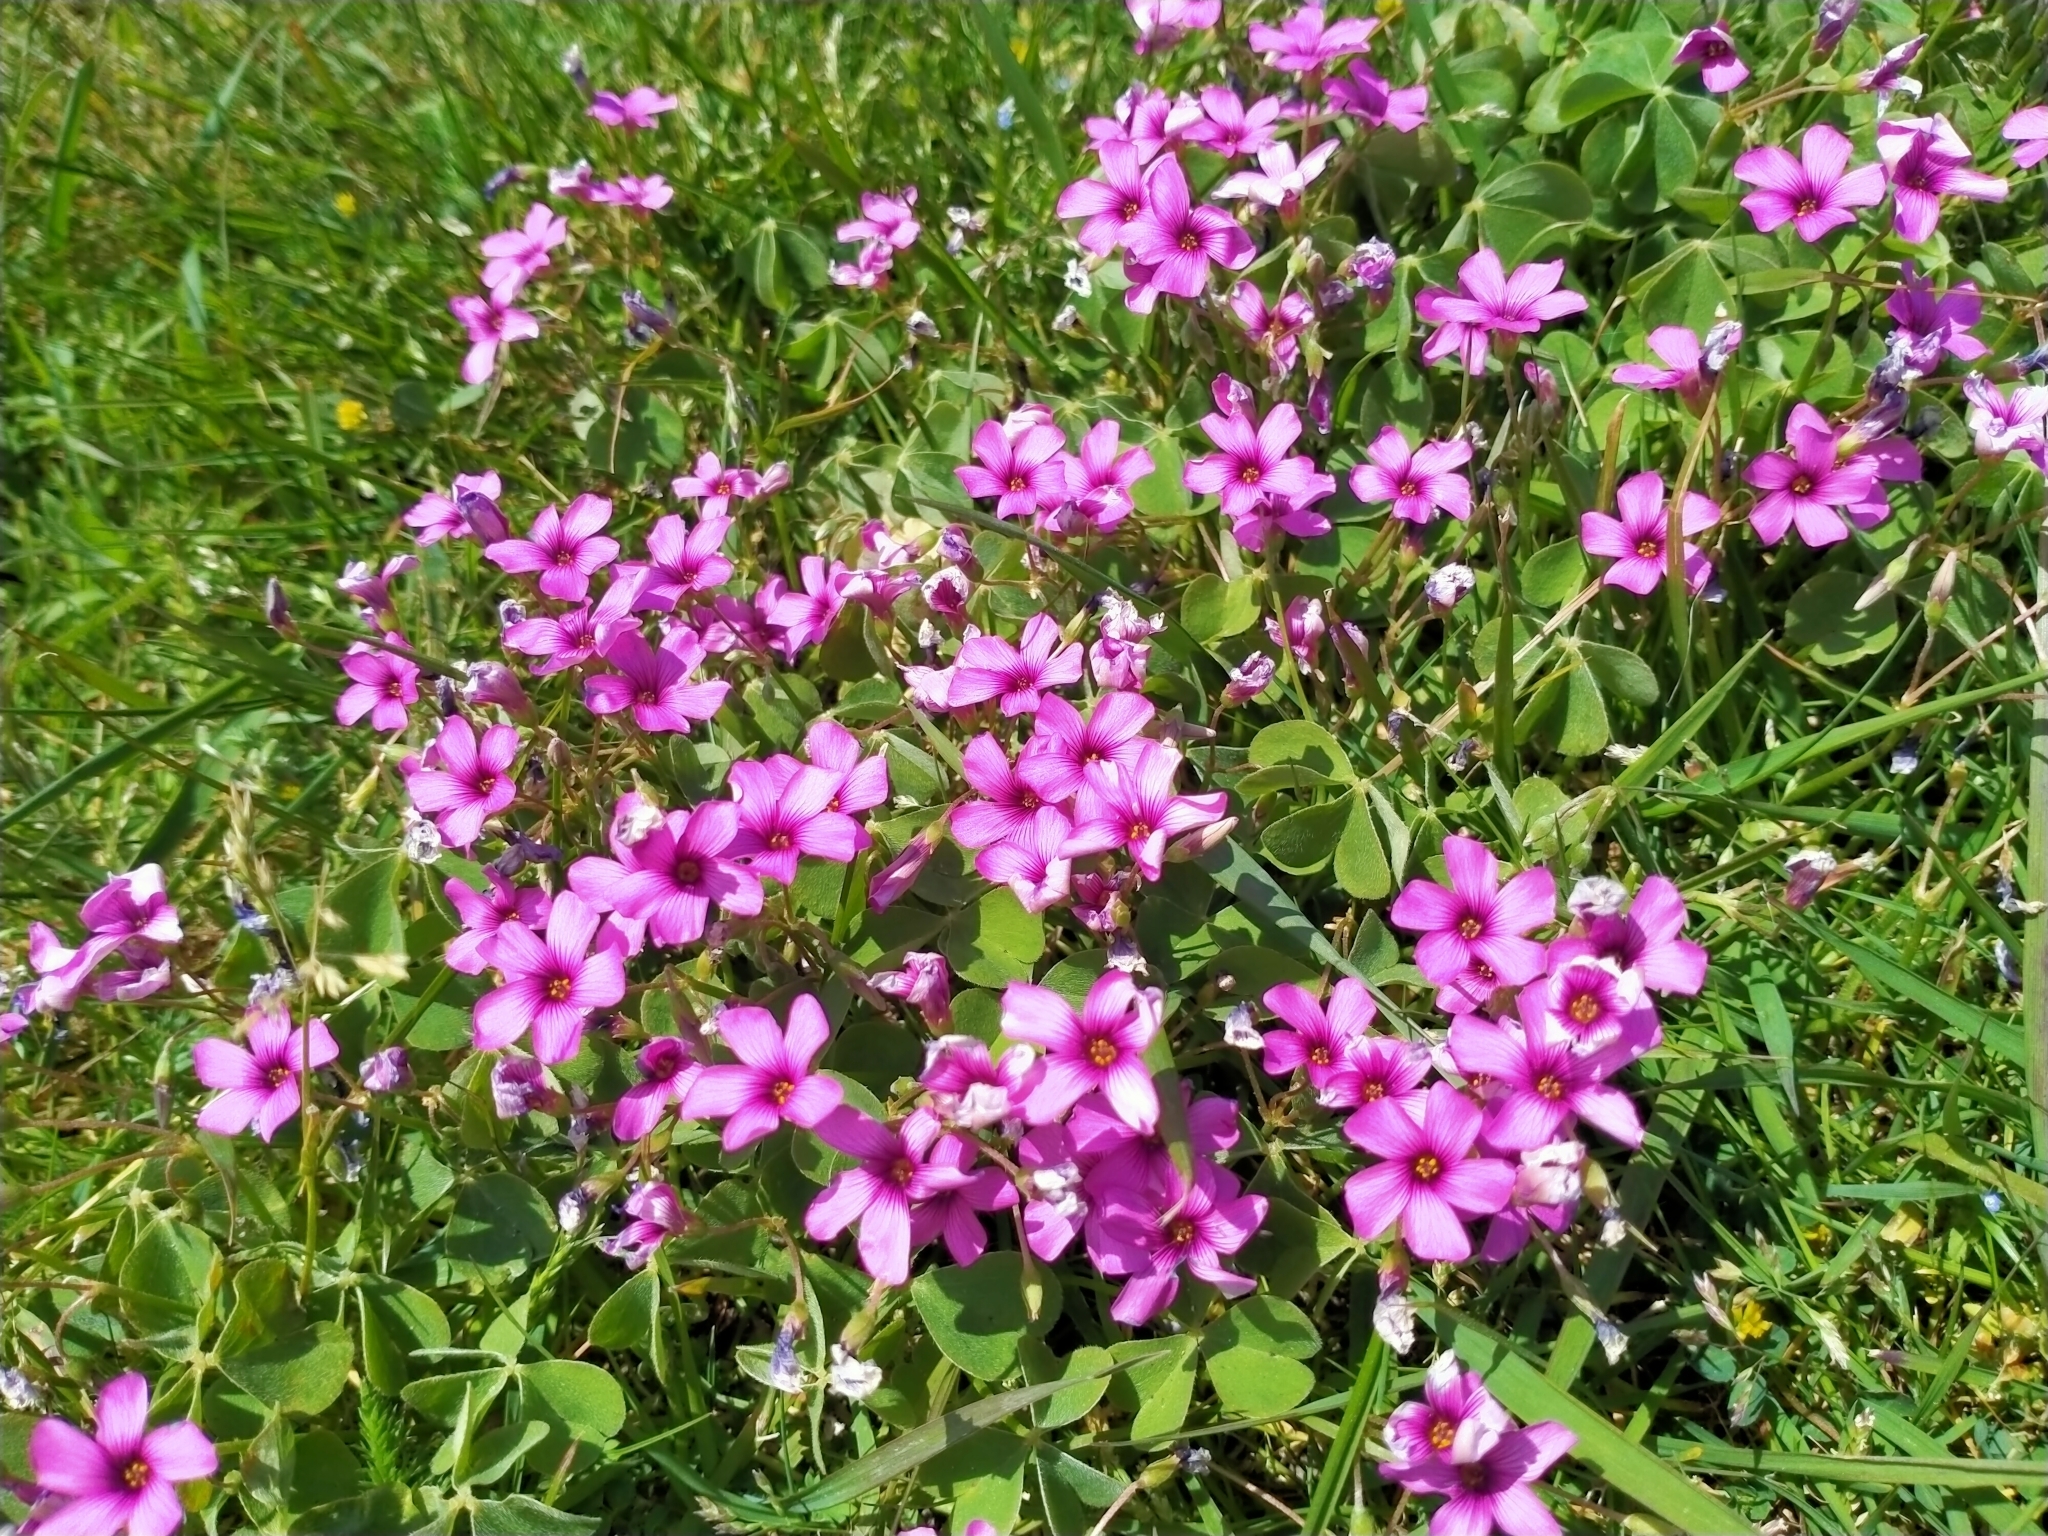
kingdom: Plantae
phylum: Tracheophyta
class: Magnoliopsida
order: Oxalidales
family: Oxalidaceae
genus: Oxalis
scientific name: Oxalis articulata
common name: Pink-sorrel
